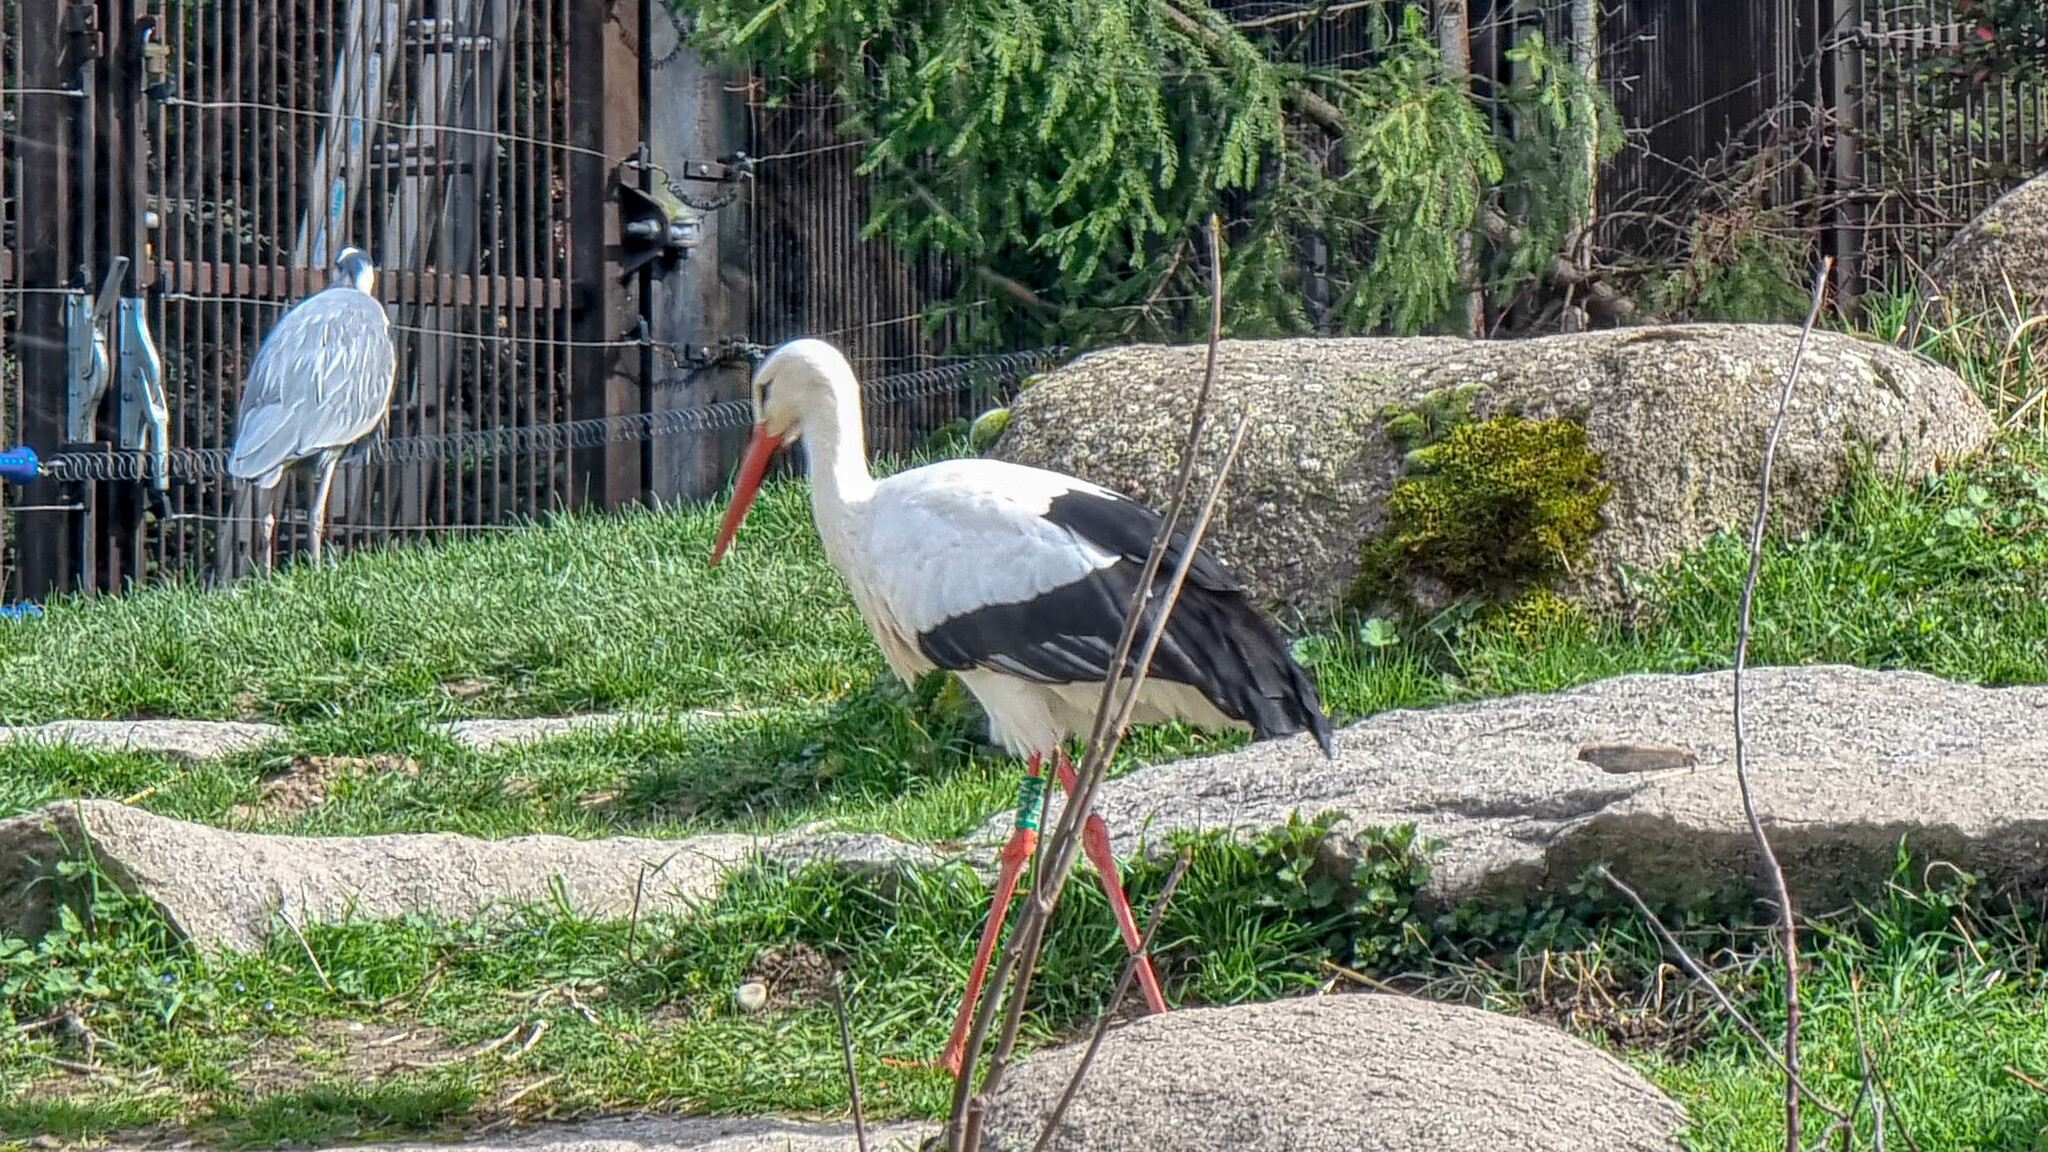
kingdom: Animalia
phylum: Chordata
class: Aves
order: Ciconiiformes
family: Ciconiidae
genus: Ciconia
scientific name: Ciconia ciconia
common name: White stork
